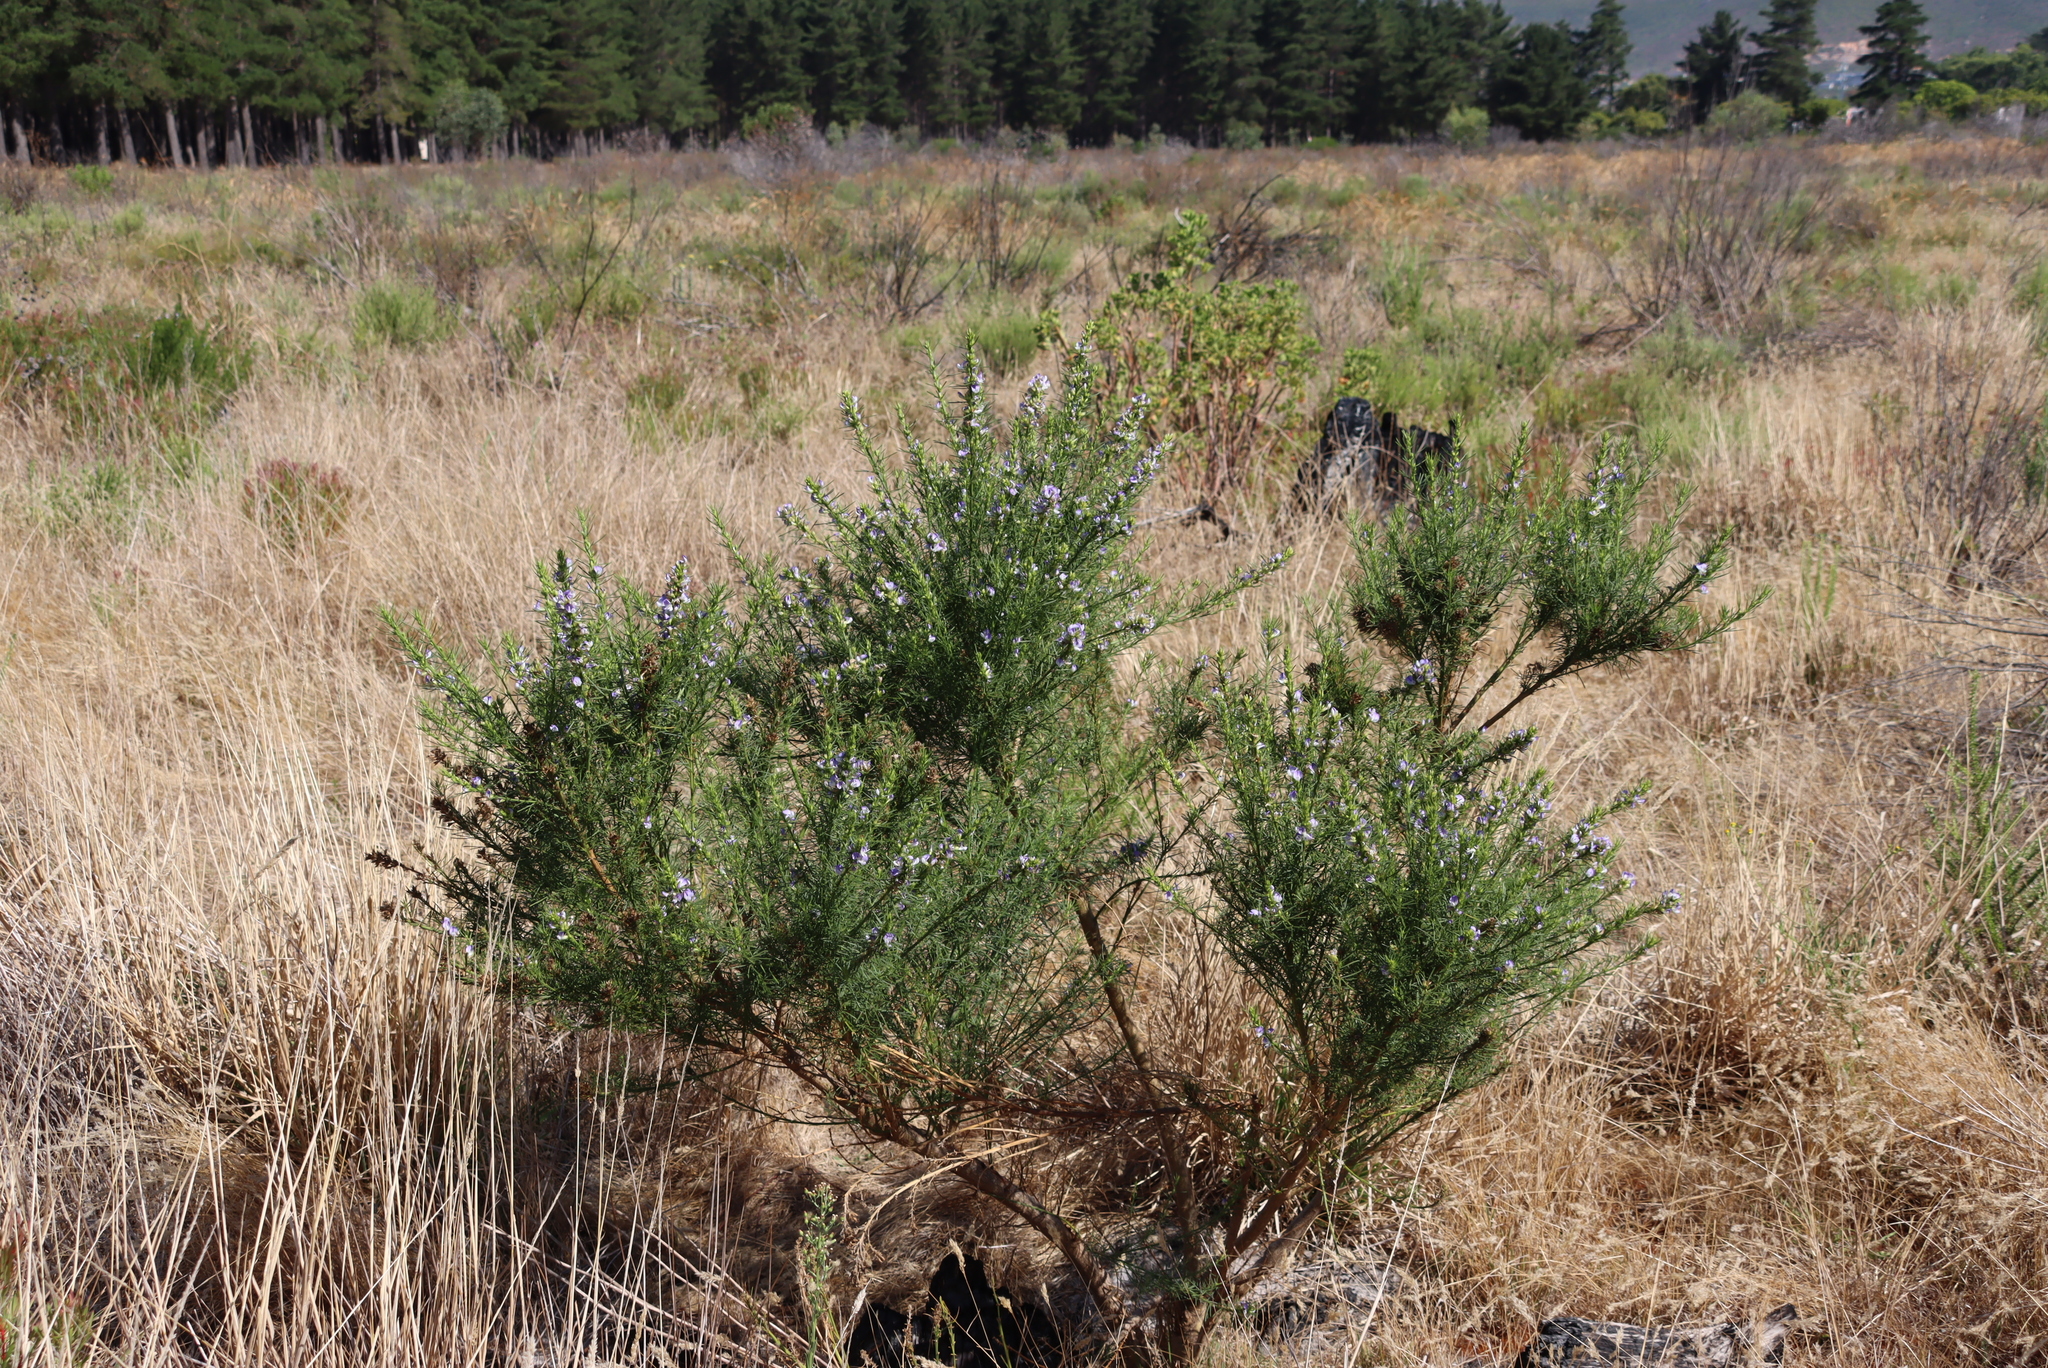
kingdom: Plantae
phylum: Tracheophyta
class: Magnoliopsida
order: Fabales
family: Fabaceae
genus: Psoralea
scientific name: Psoralea pinnata
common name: African scurfpea
